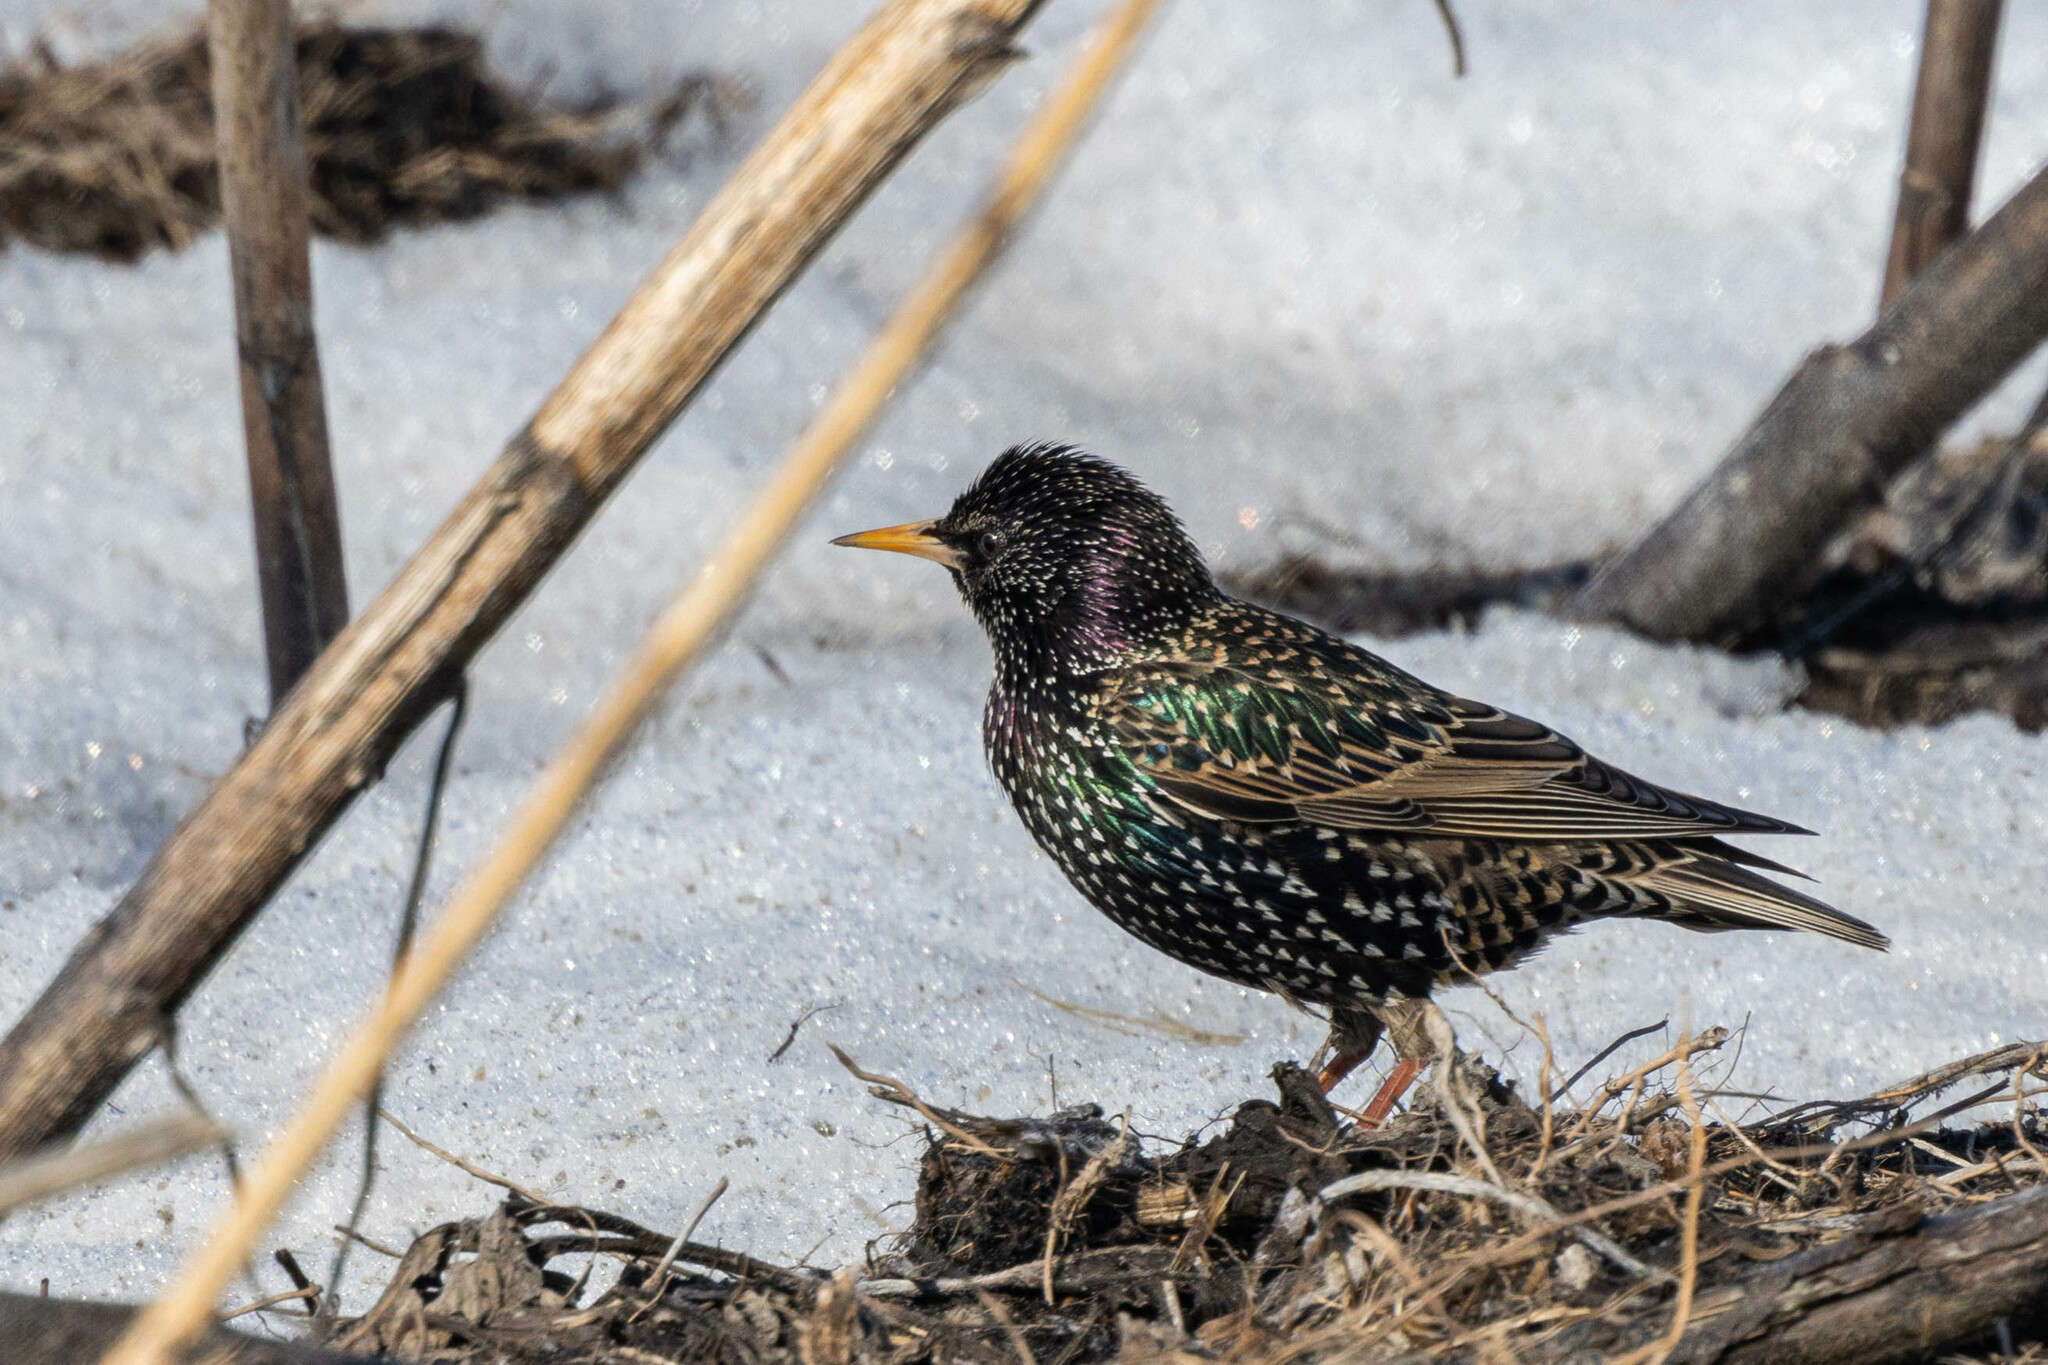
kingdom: Animalia
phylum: Chordata
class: Aves
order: Passeriformes
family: Sturnidae
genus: Sturnus
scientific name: Sturnus vulgaris
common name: Common starling
